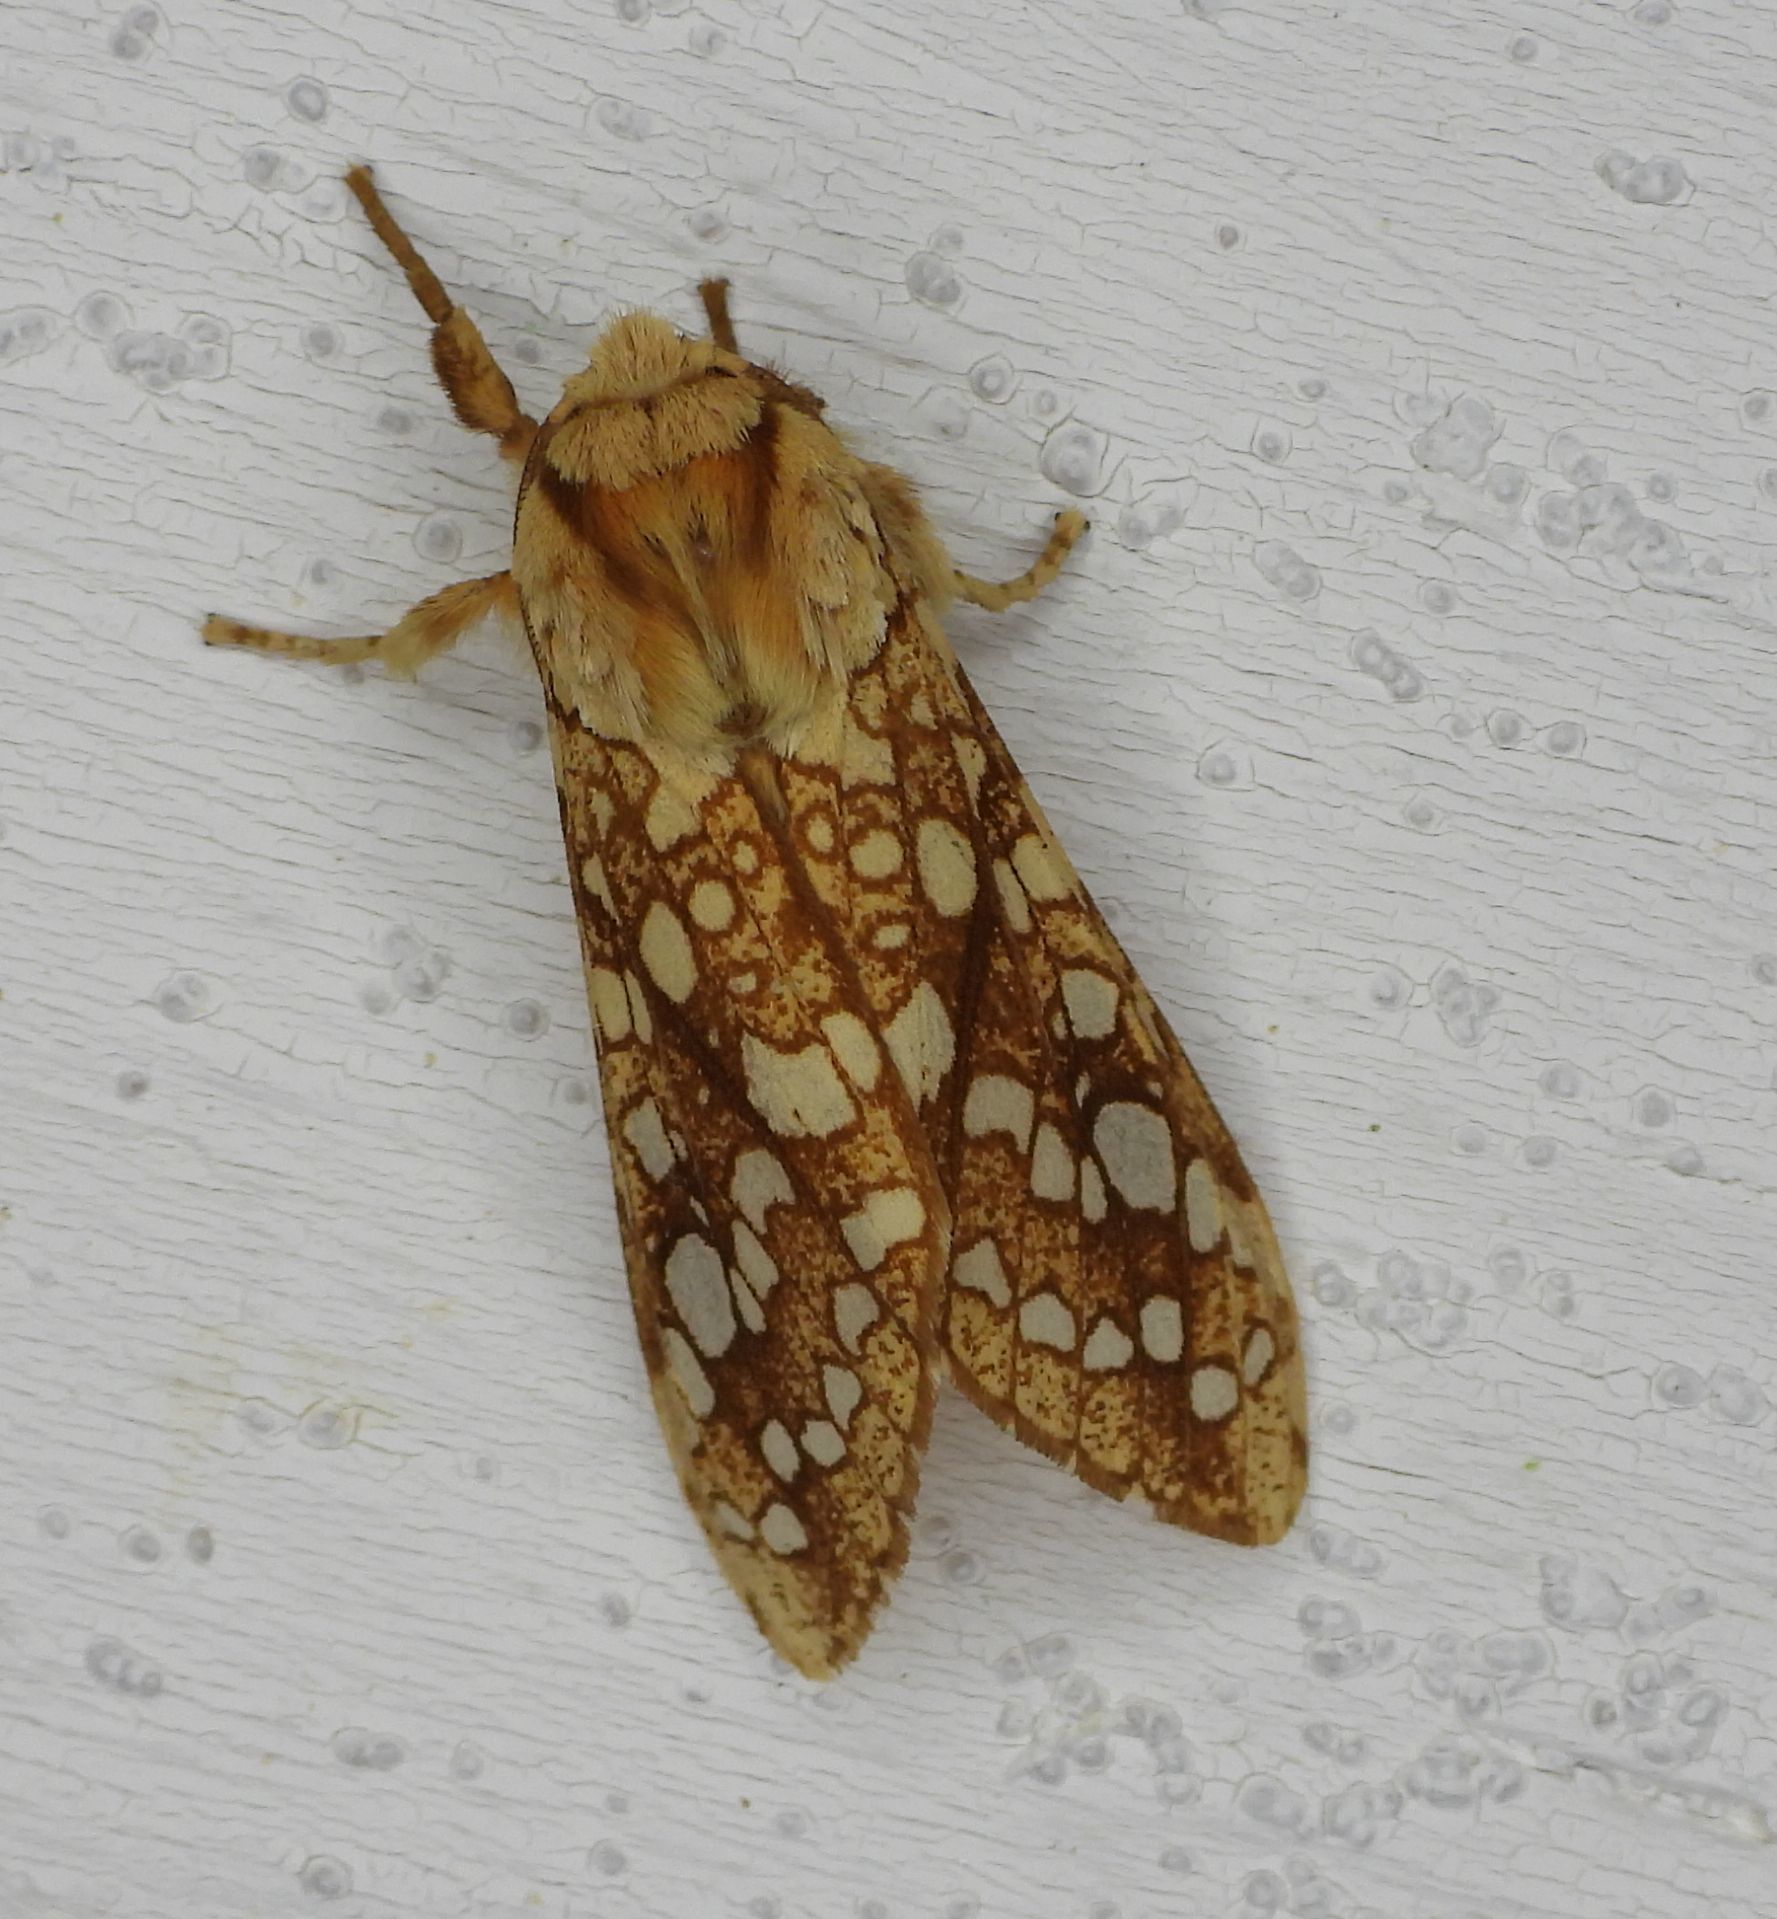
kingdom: Animalia
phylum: Arthropoda
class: Insecta
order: Lepidoptera
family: Erebidae
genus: Lophocampa
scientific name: Lophocampa caryae
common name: Hickory tussock moth
